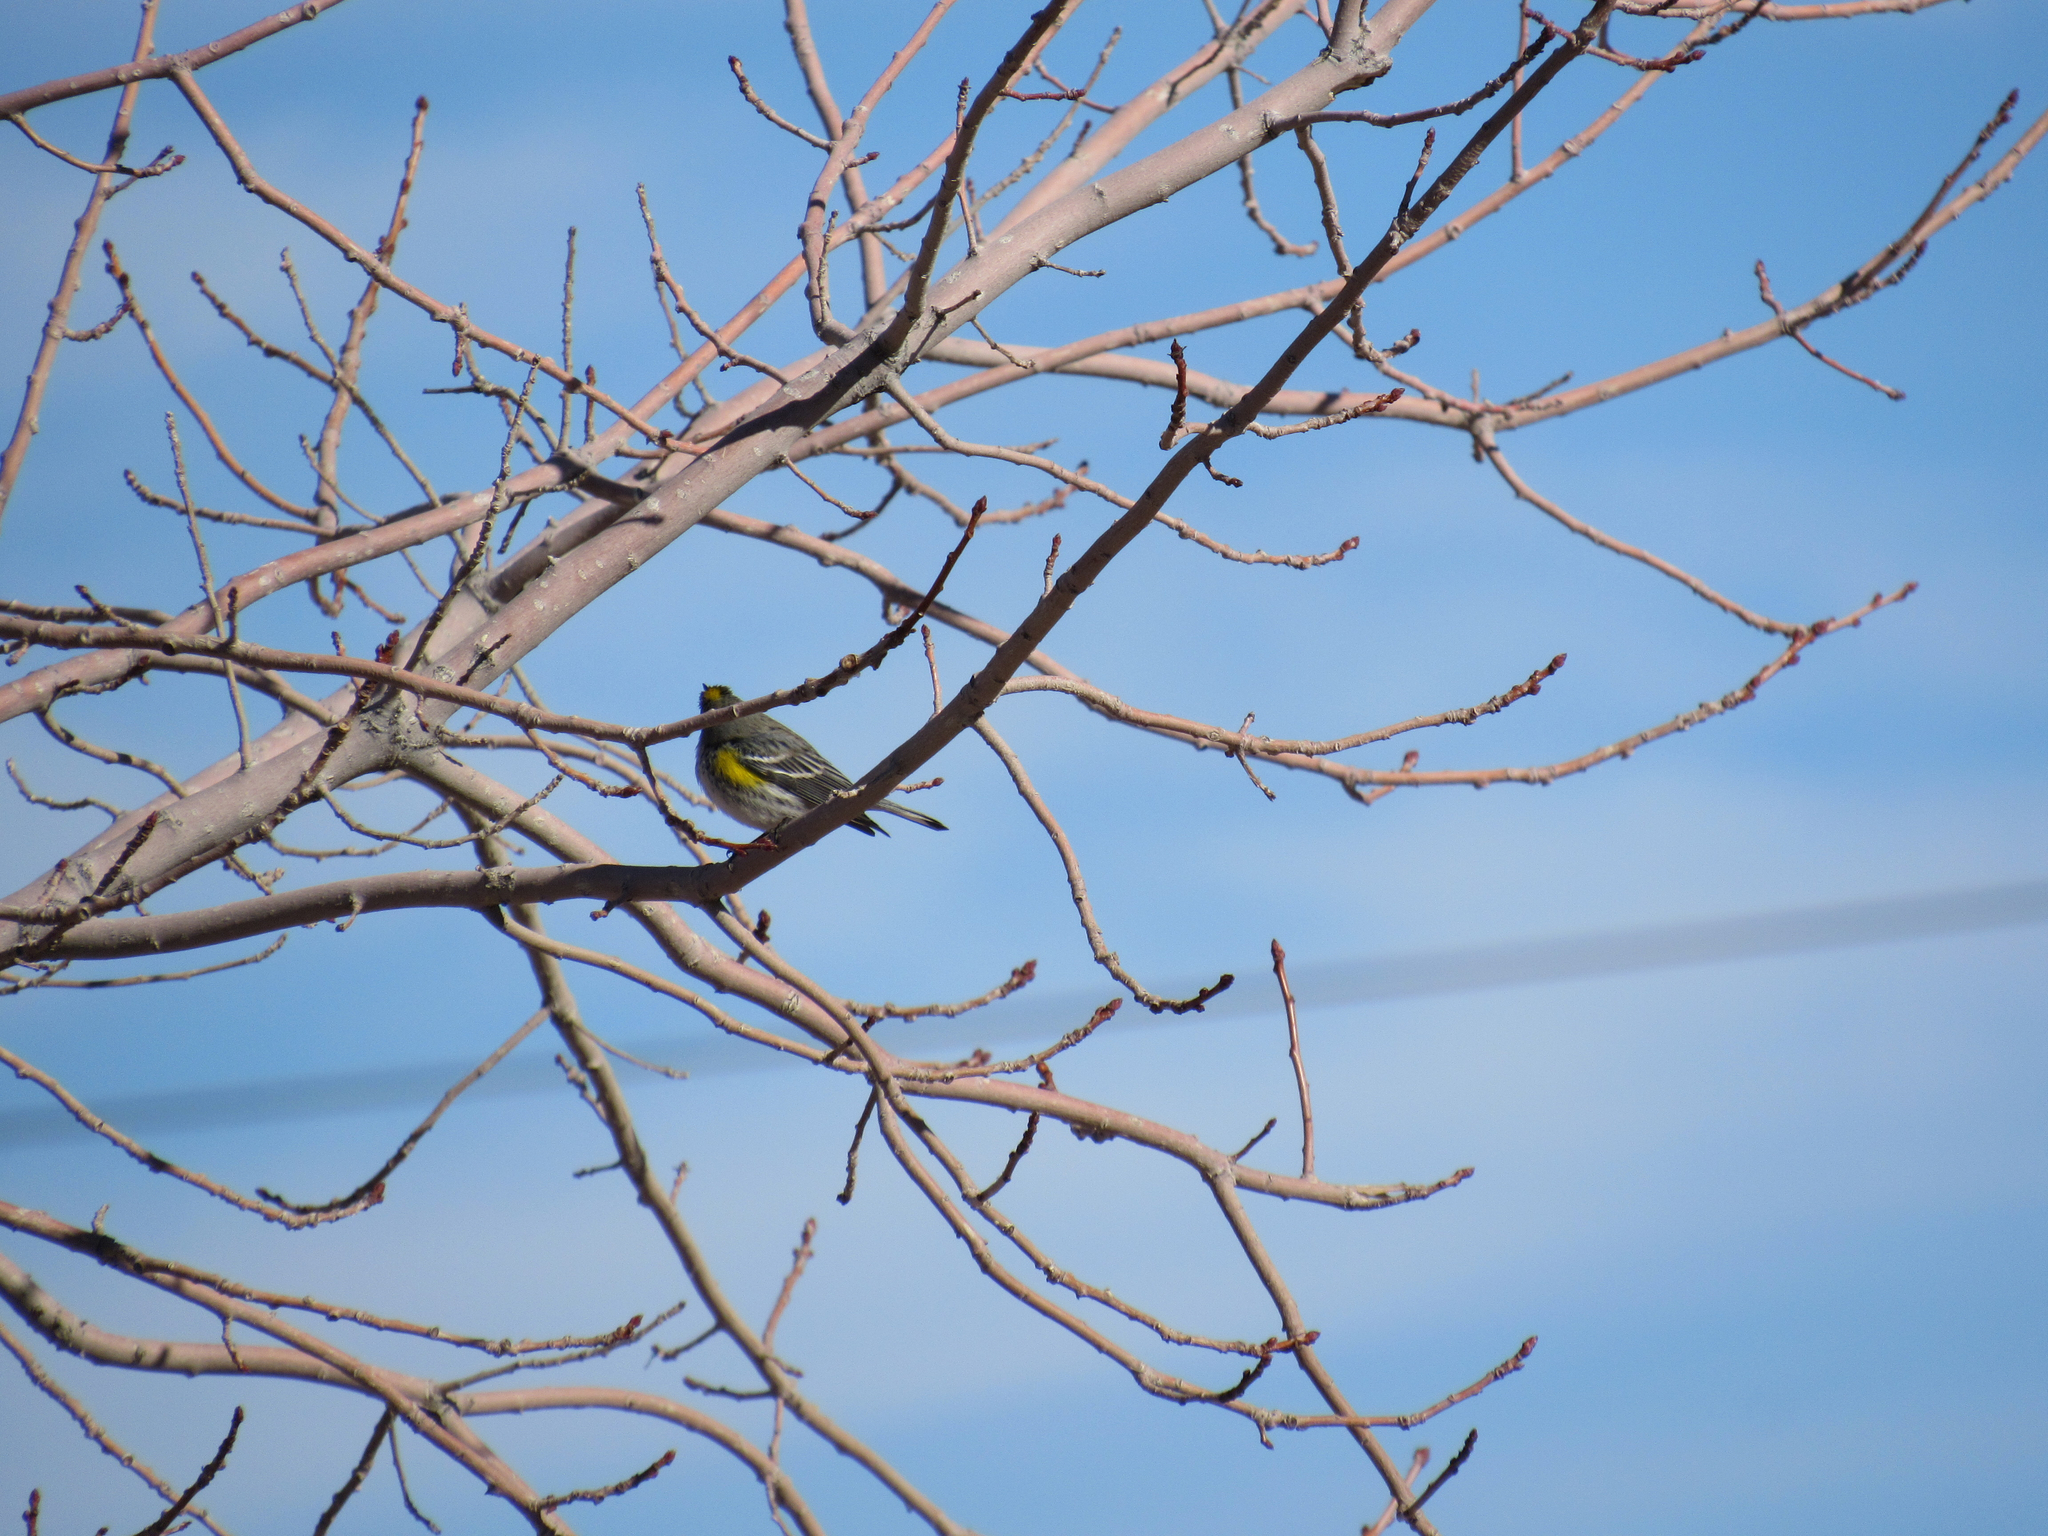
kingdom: Animalia
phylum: Chordata
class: Aves
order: Passeriformes
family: Parulidae
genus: Setophaga
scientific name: Setophaga auduboni
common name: Audubon's warbler
